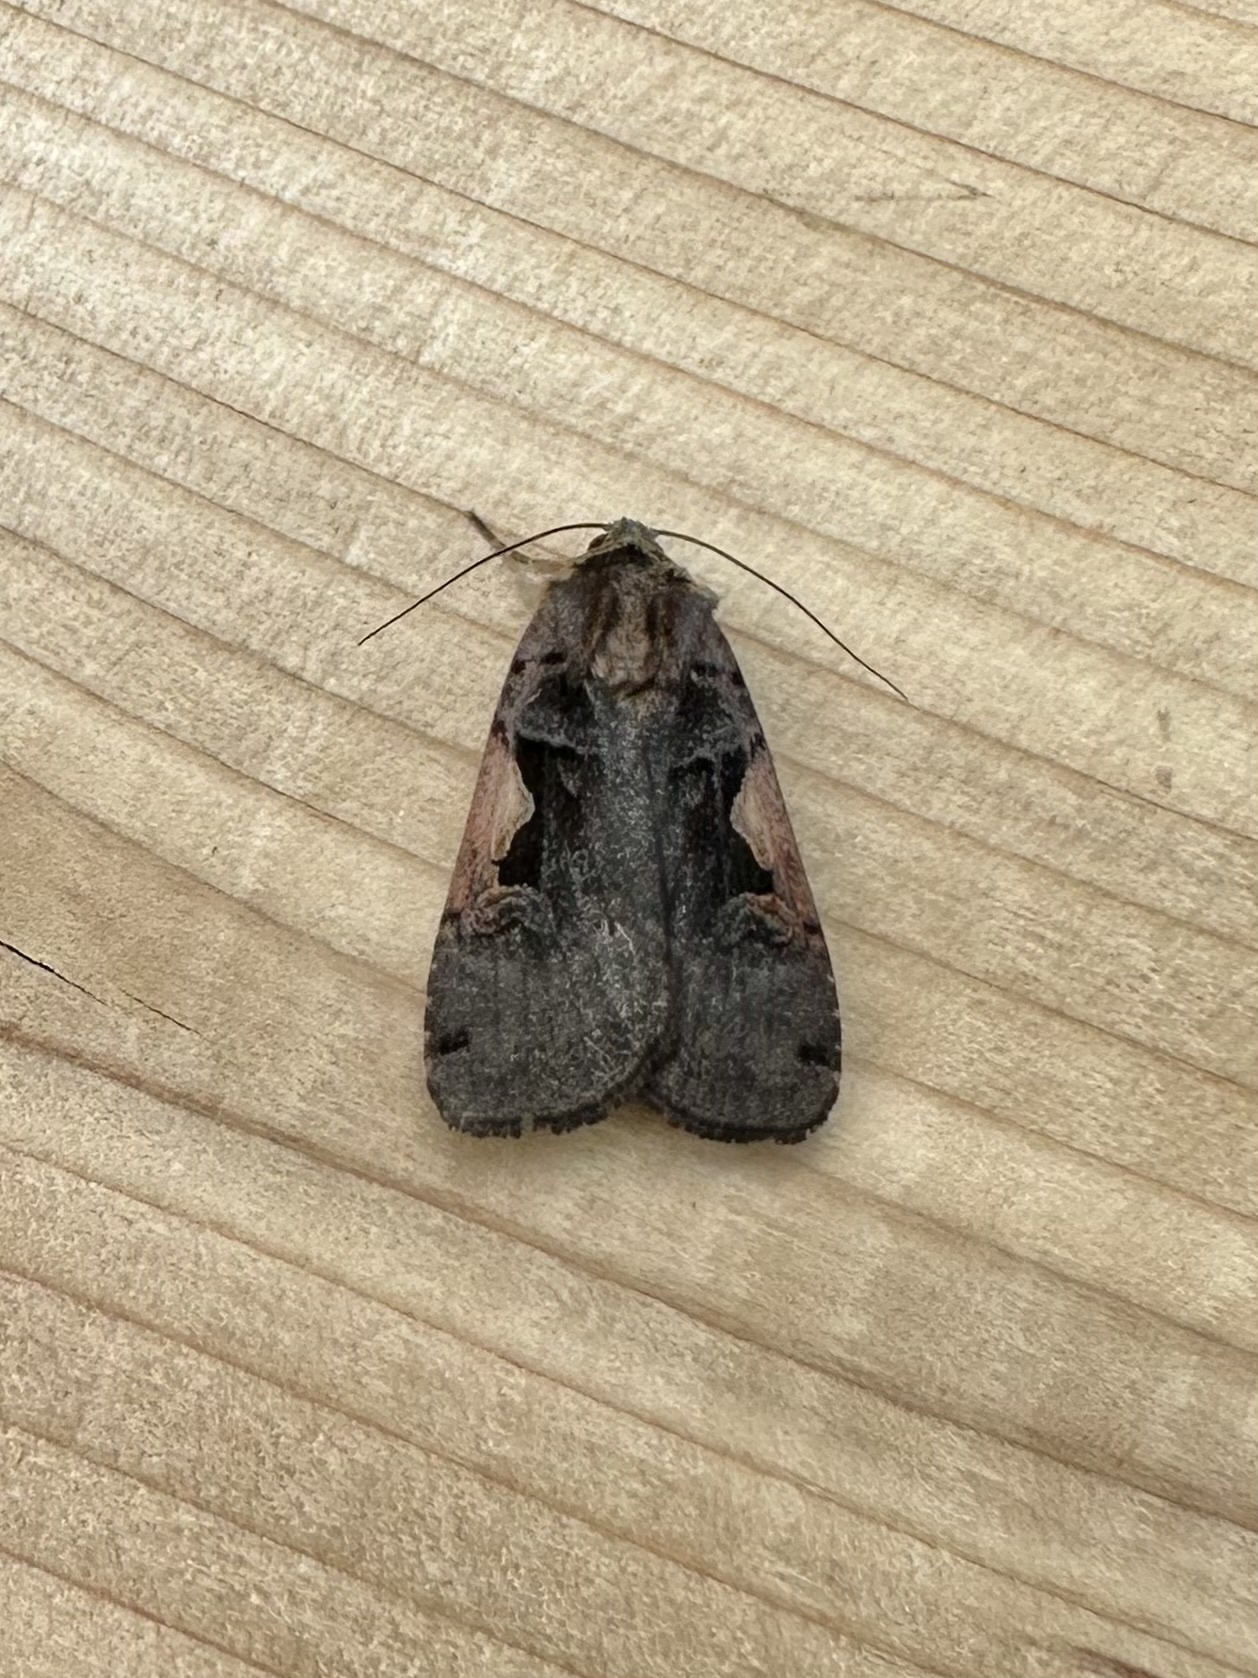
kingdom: Animalia
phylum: Arthropoda
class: Insecta
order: Lepidoptera
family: Noctuidae
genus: Xestia
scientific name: Xestia
